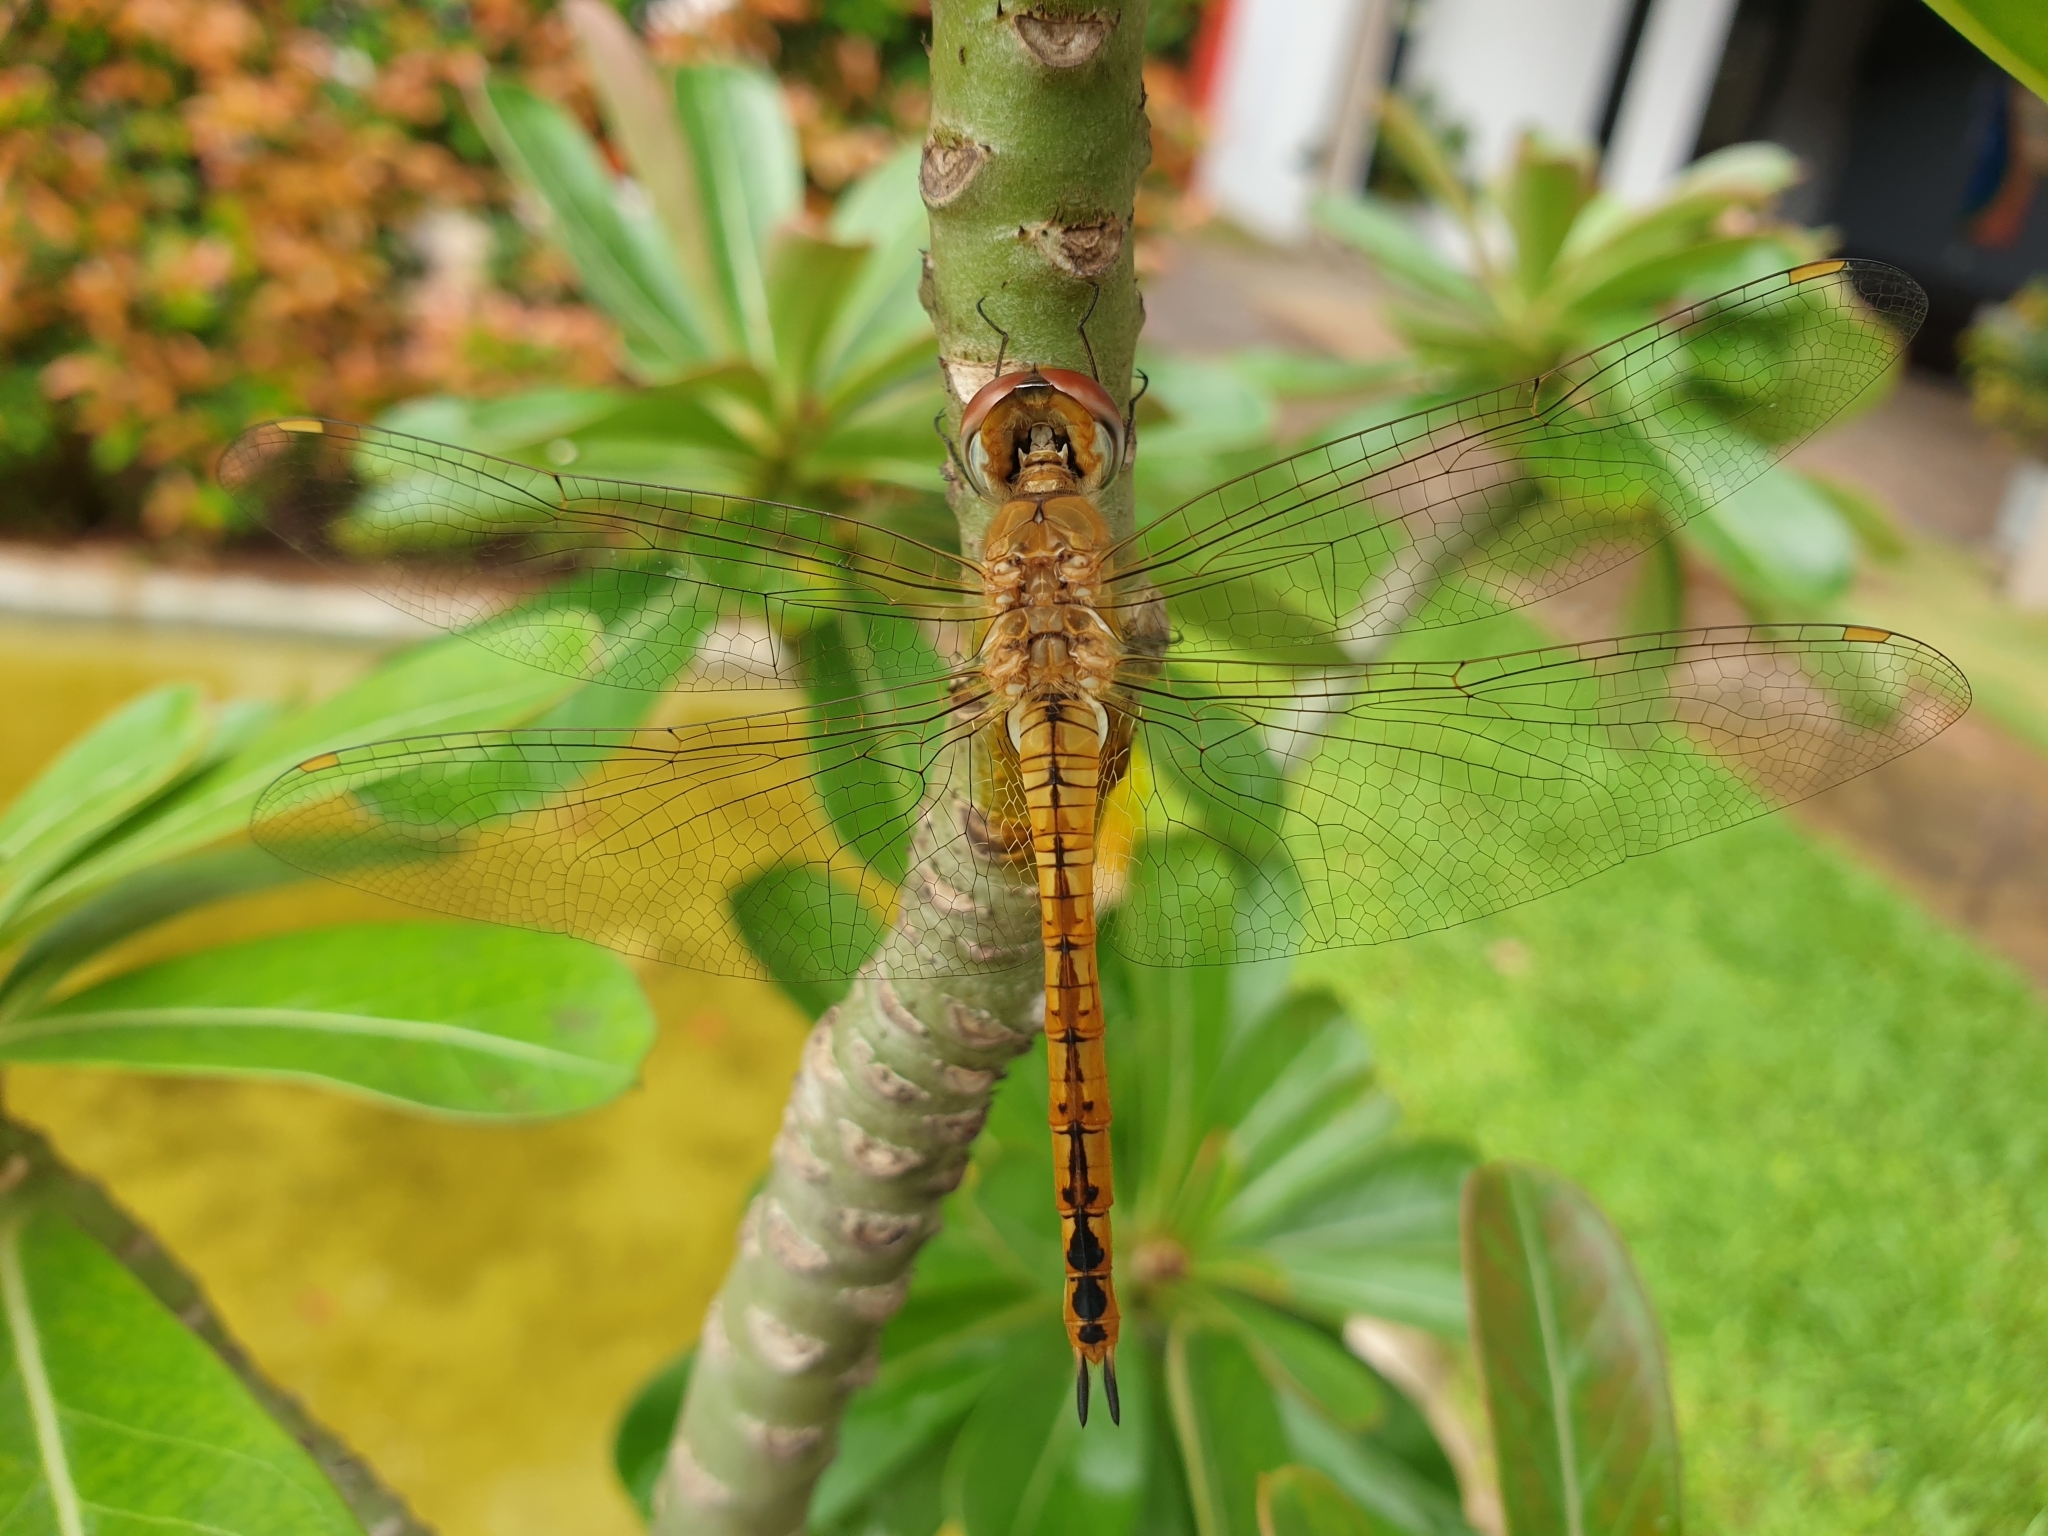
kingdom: Animalia
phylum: Arthropoda
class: Insecta
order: Odonata
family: Libellulidae
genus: Pantala
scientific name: Pantala flavescens
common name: Wandering glider
